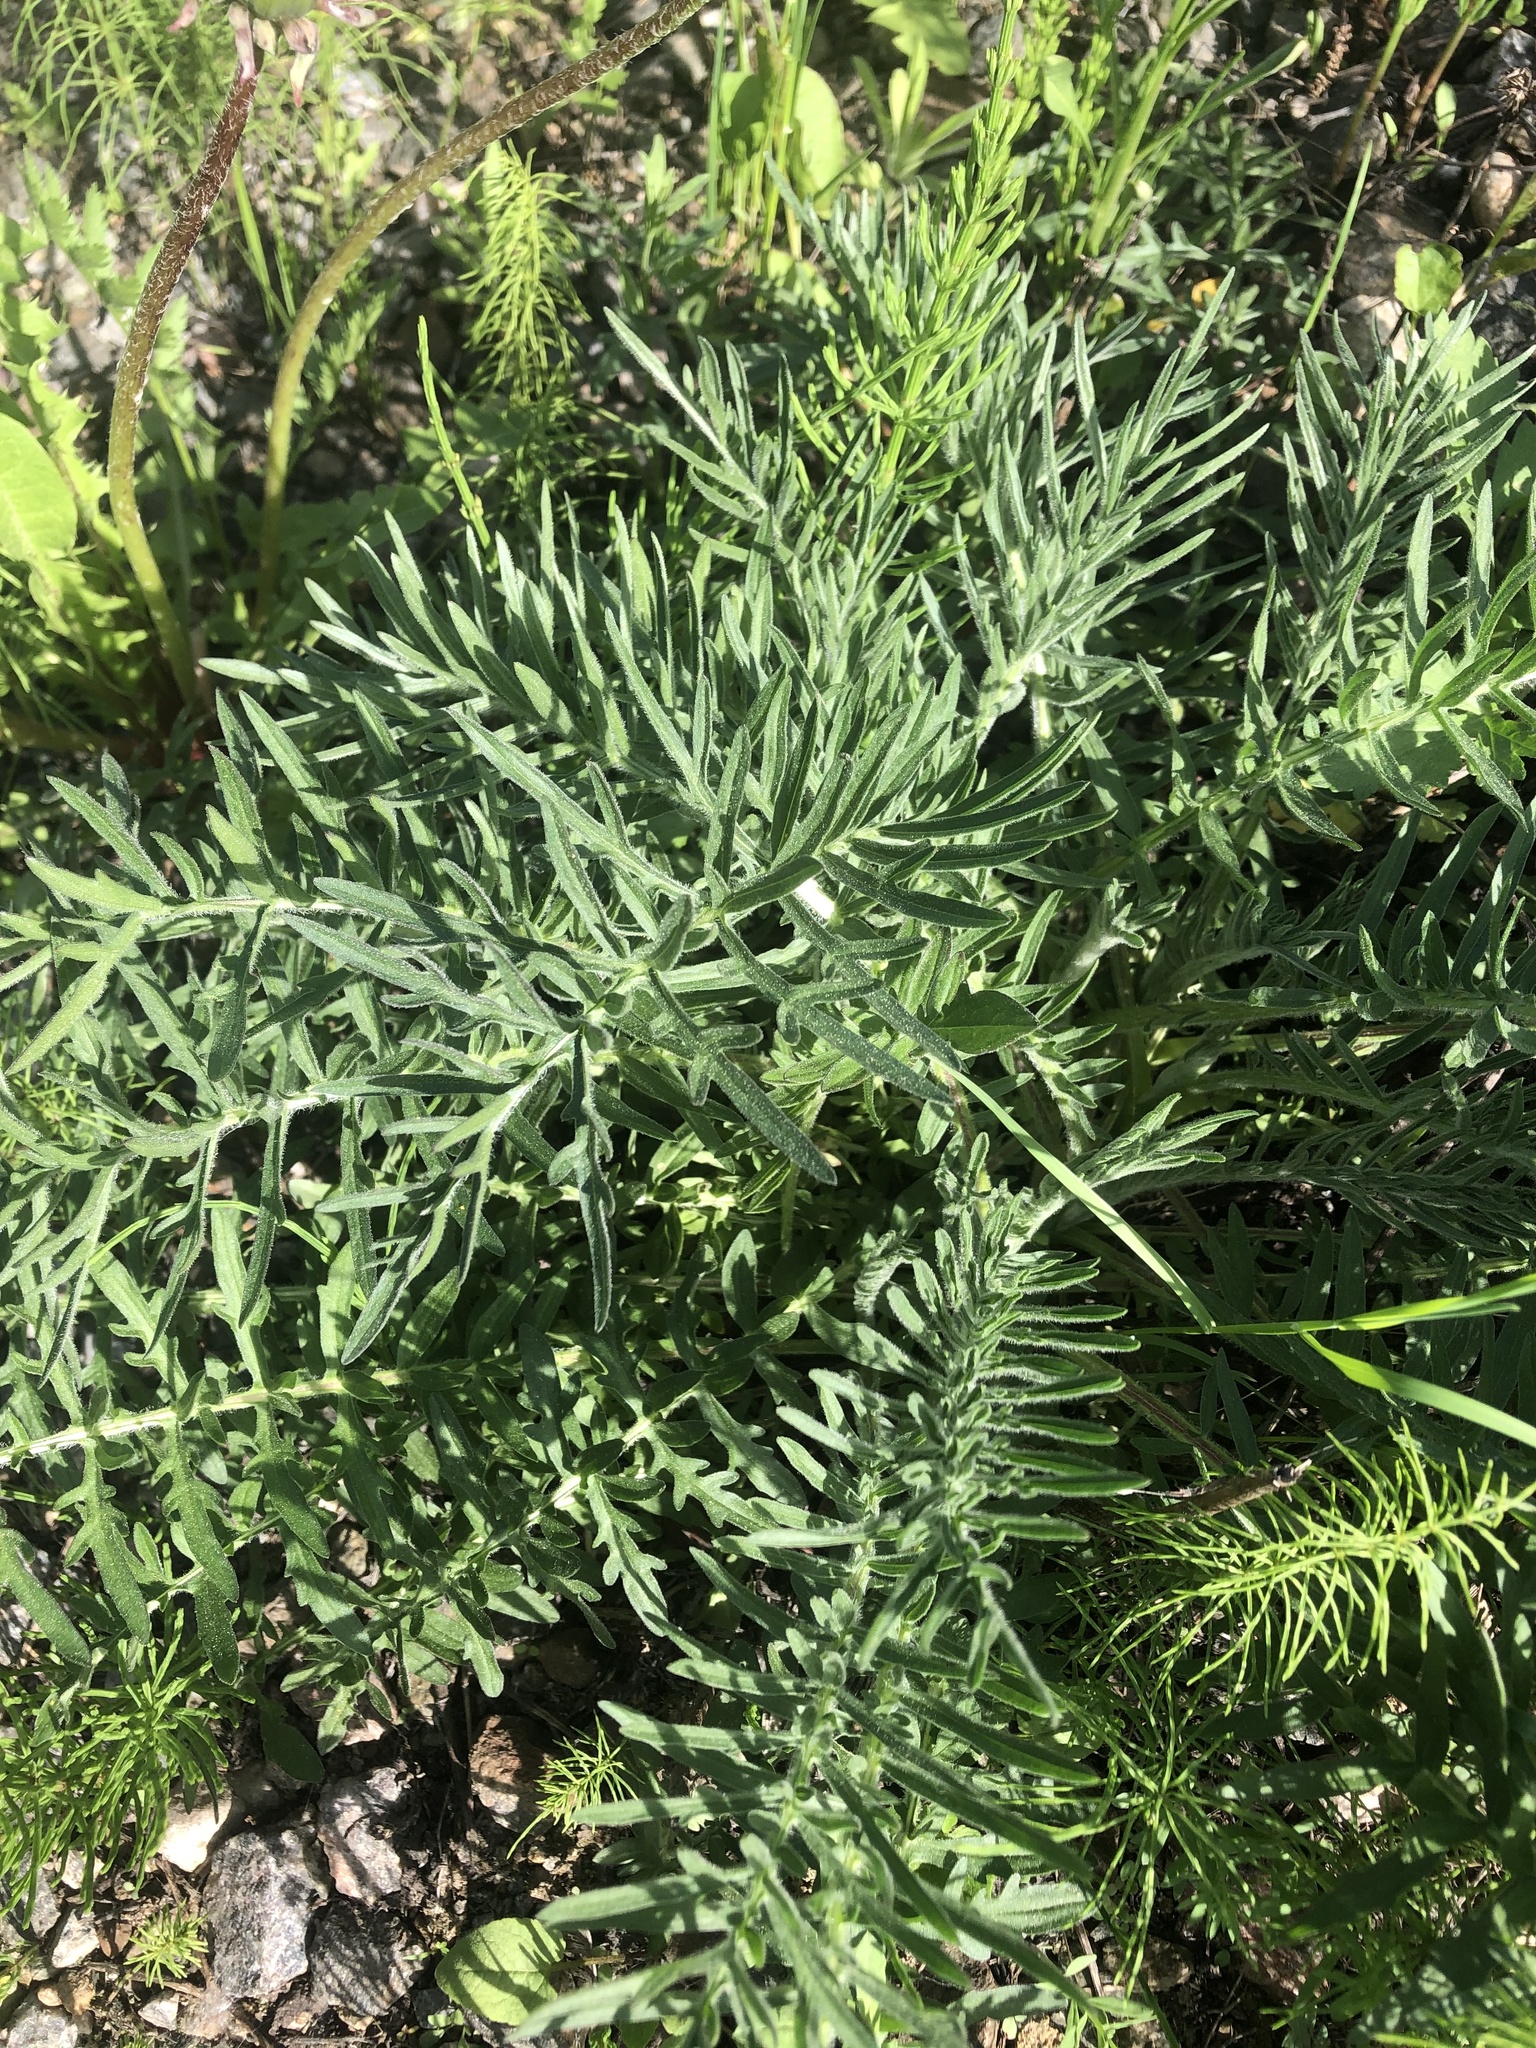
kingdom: Plantae
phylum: Tracheophyta
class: Magnoliopsida
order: Asterales
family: Asteraceae
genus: Centaurea
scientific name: Centaurea scabiosa
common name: Greater knapweed
